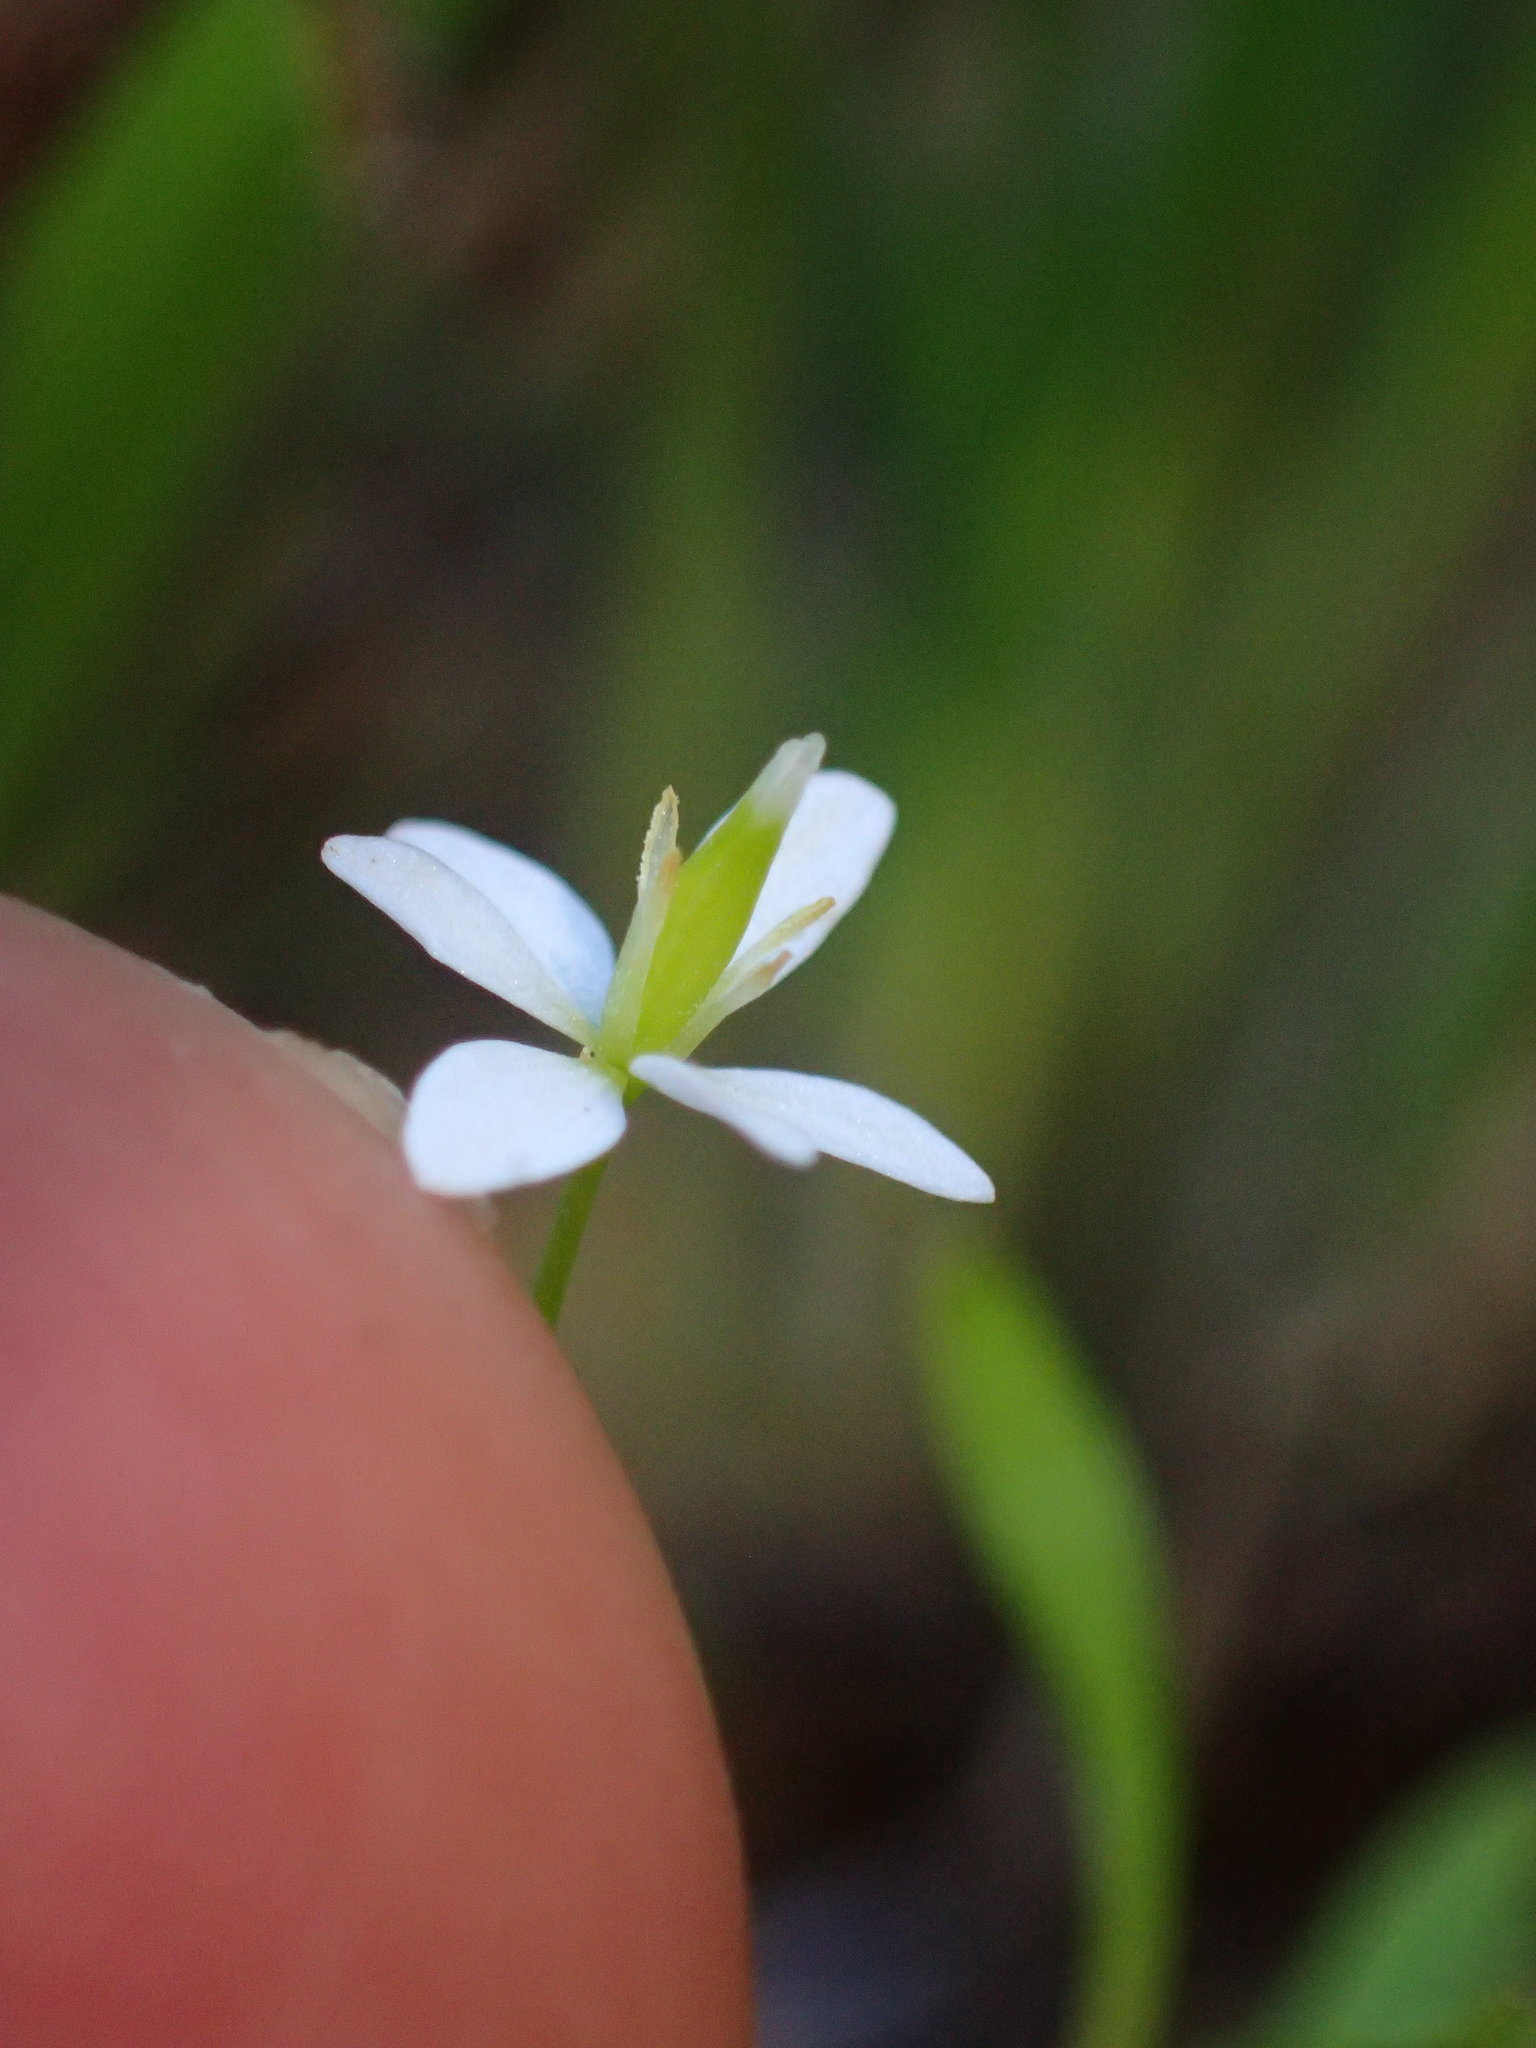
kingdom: Plantae
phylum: Tracheophyta
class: Magnoliopsida
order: Ranunculales
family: Papaveraceae
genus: Meconella
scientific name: Meconella denticulata
